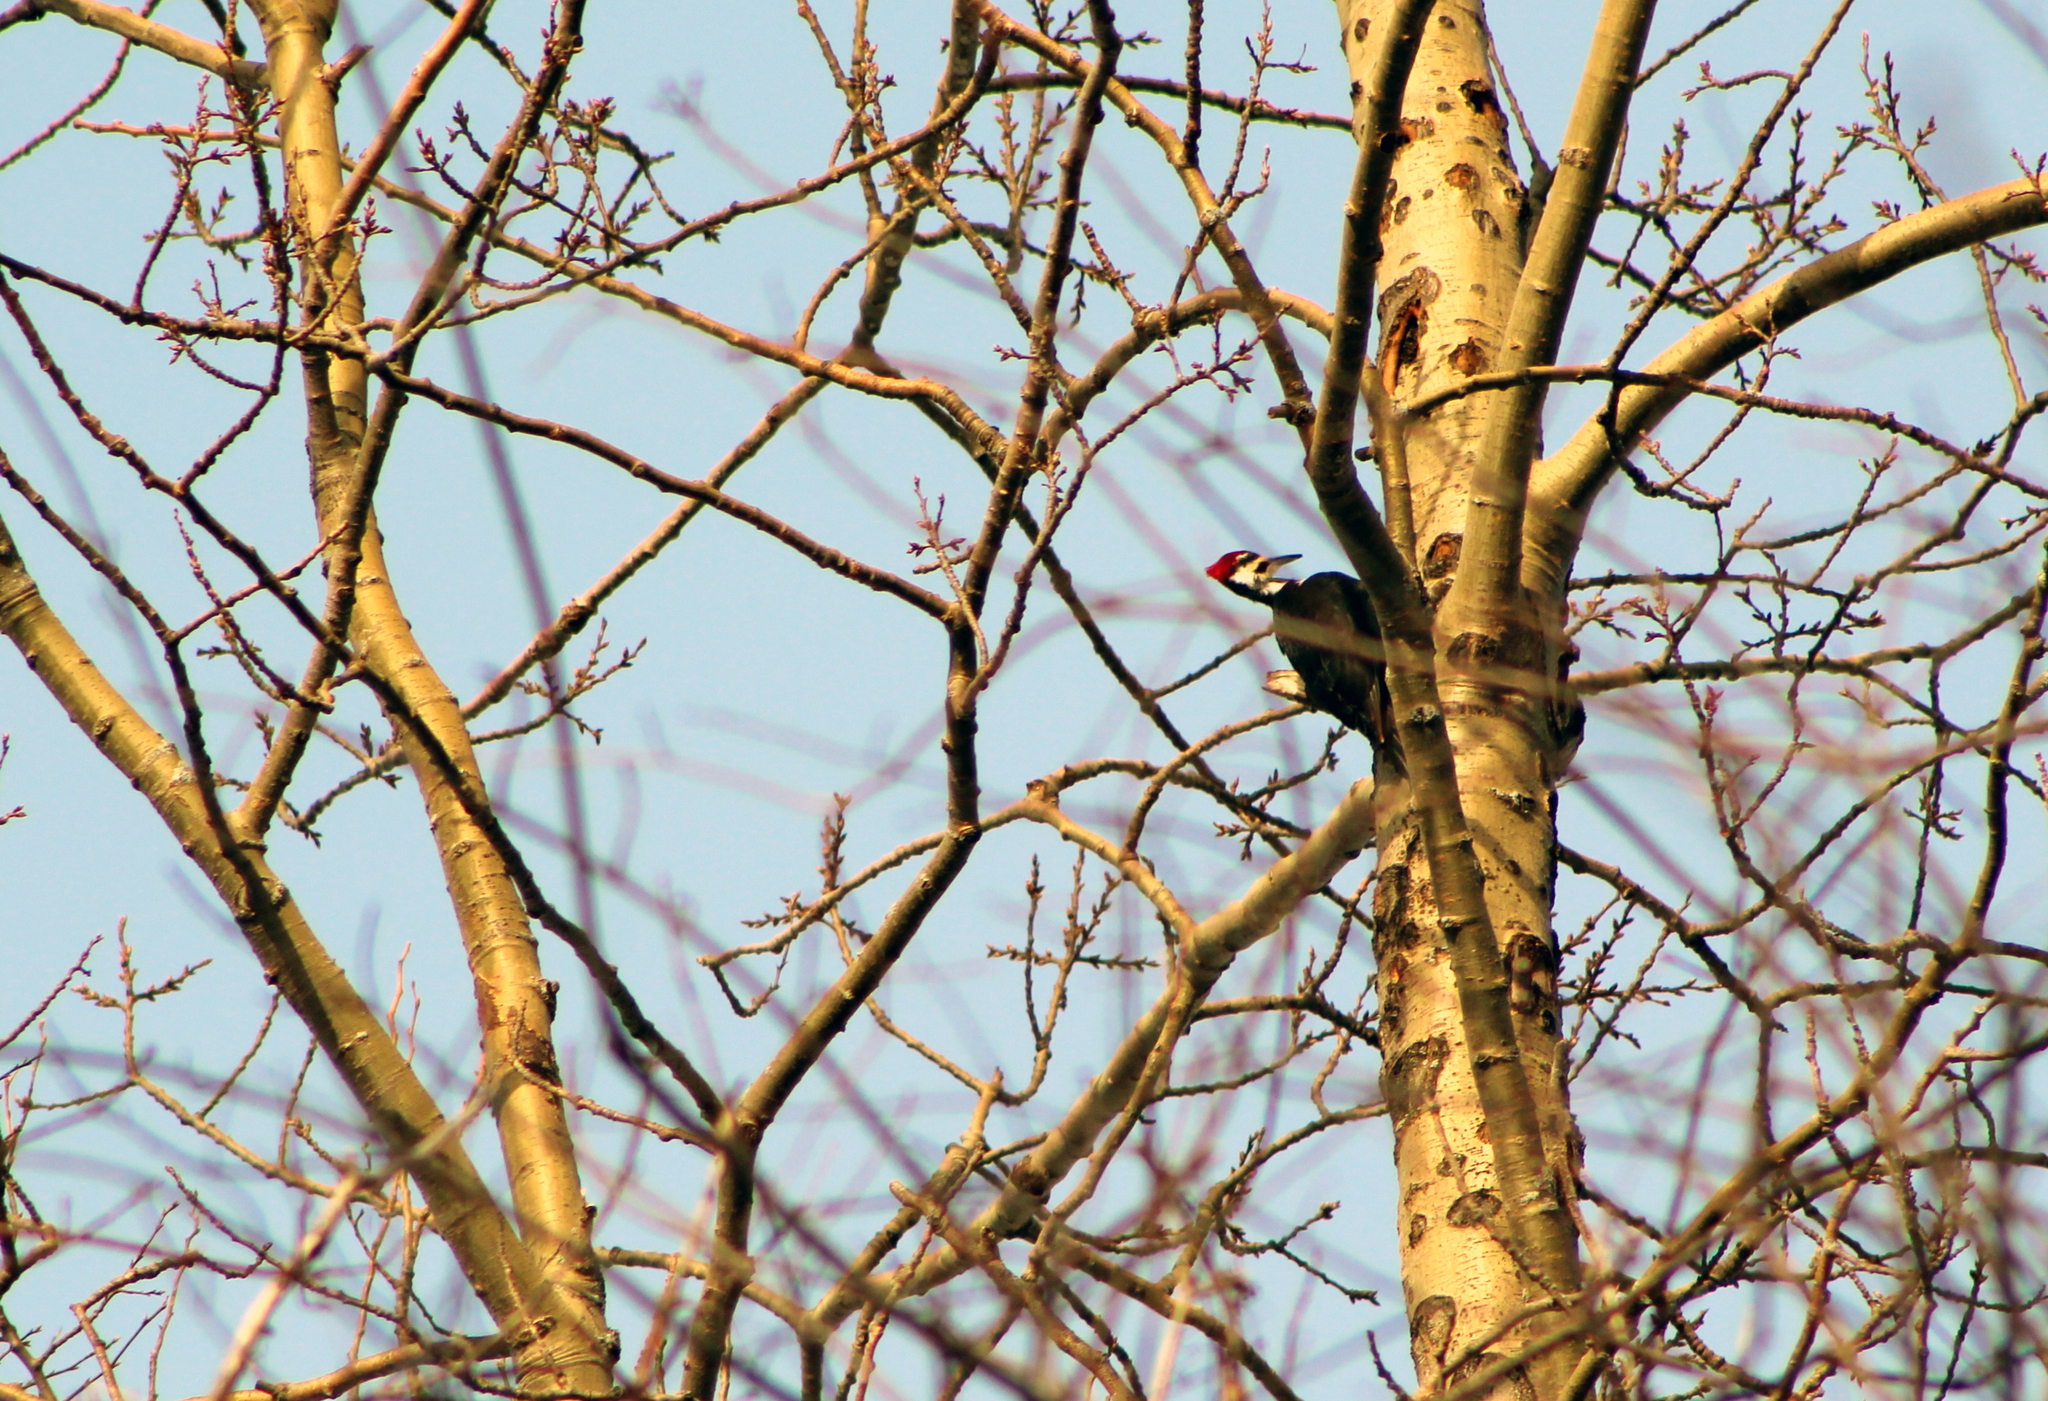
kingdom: Animalia
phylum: Chordata
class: Aves
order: Piciformes
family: Picidae
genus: Dryocopus
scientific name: Dryocopus pileatus
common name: Pileated woodpecker
